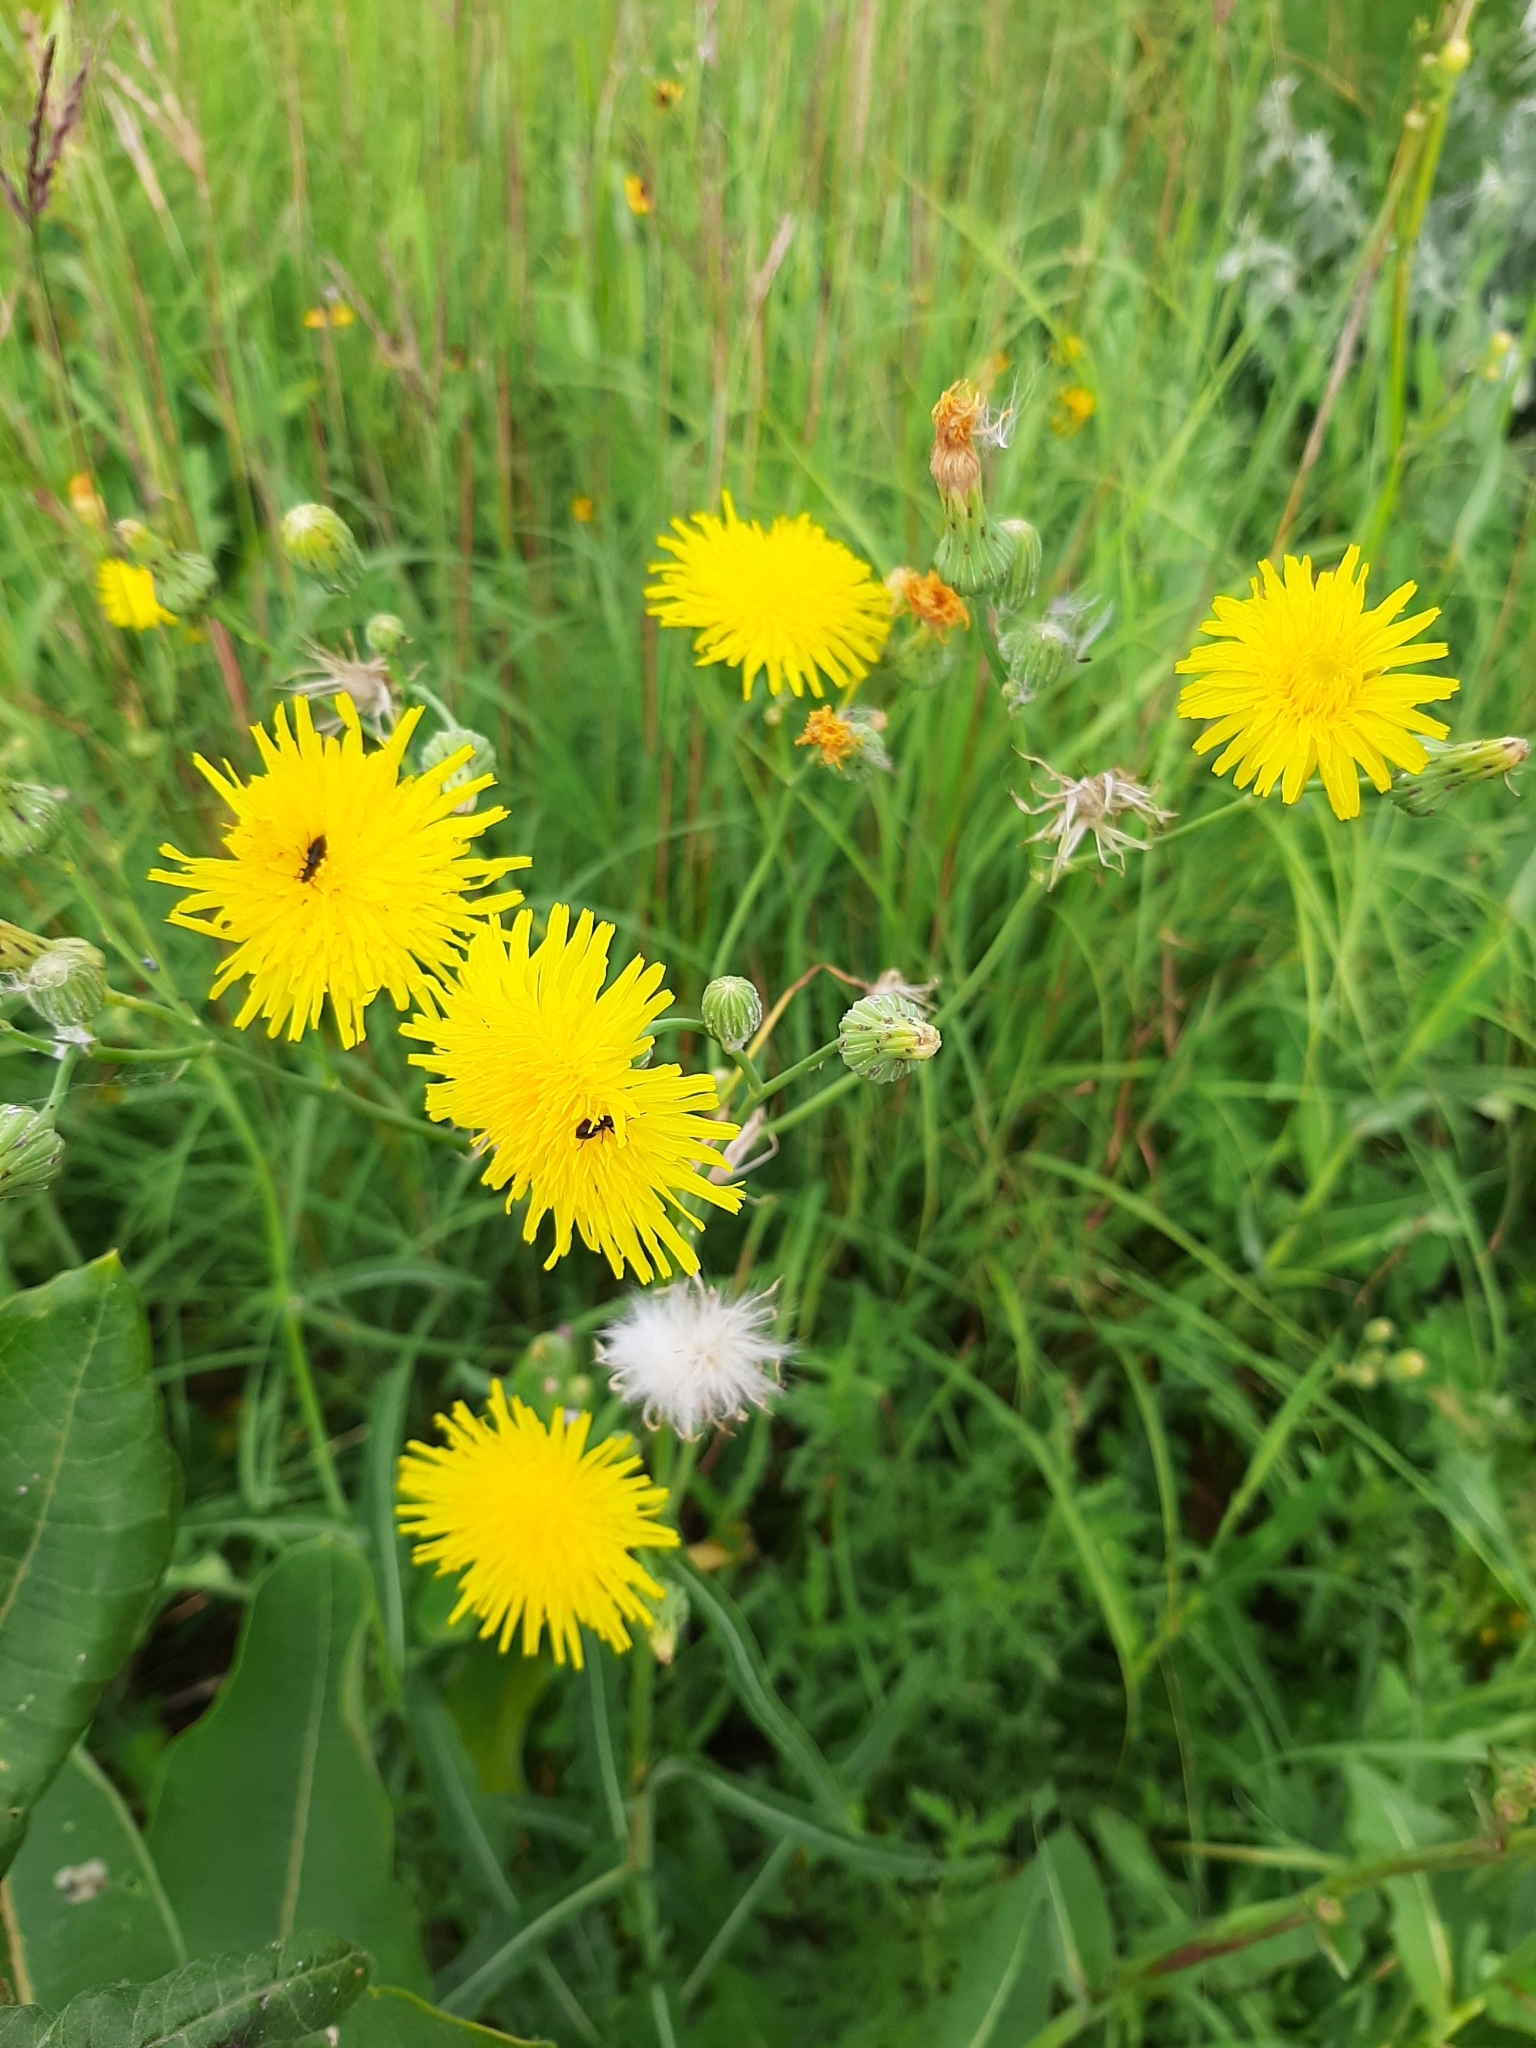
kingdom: Plantae
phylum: Tracheophyta
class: Magnoliopsida
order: Asterales
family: Asteraceae
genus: Sonchus
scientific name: Sonchus arvensis
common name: Perennial sow-thistle
